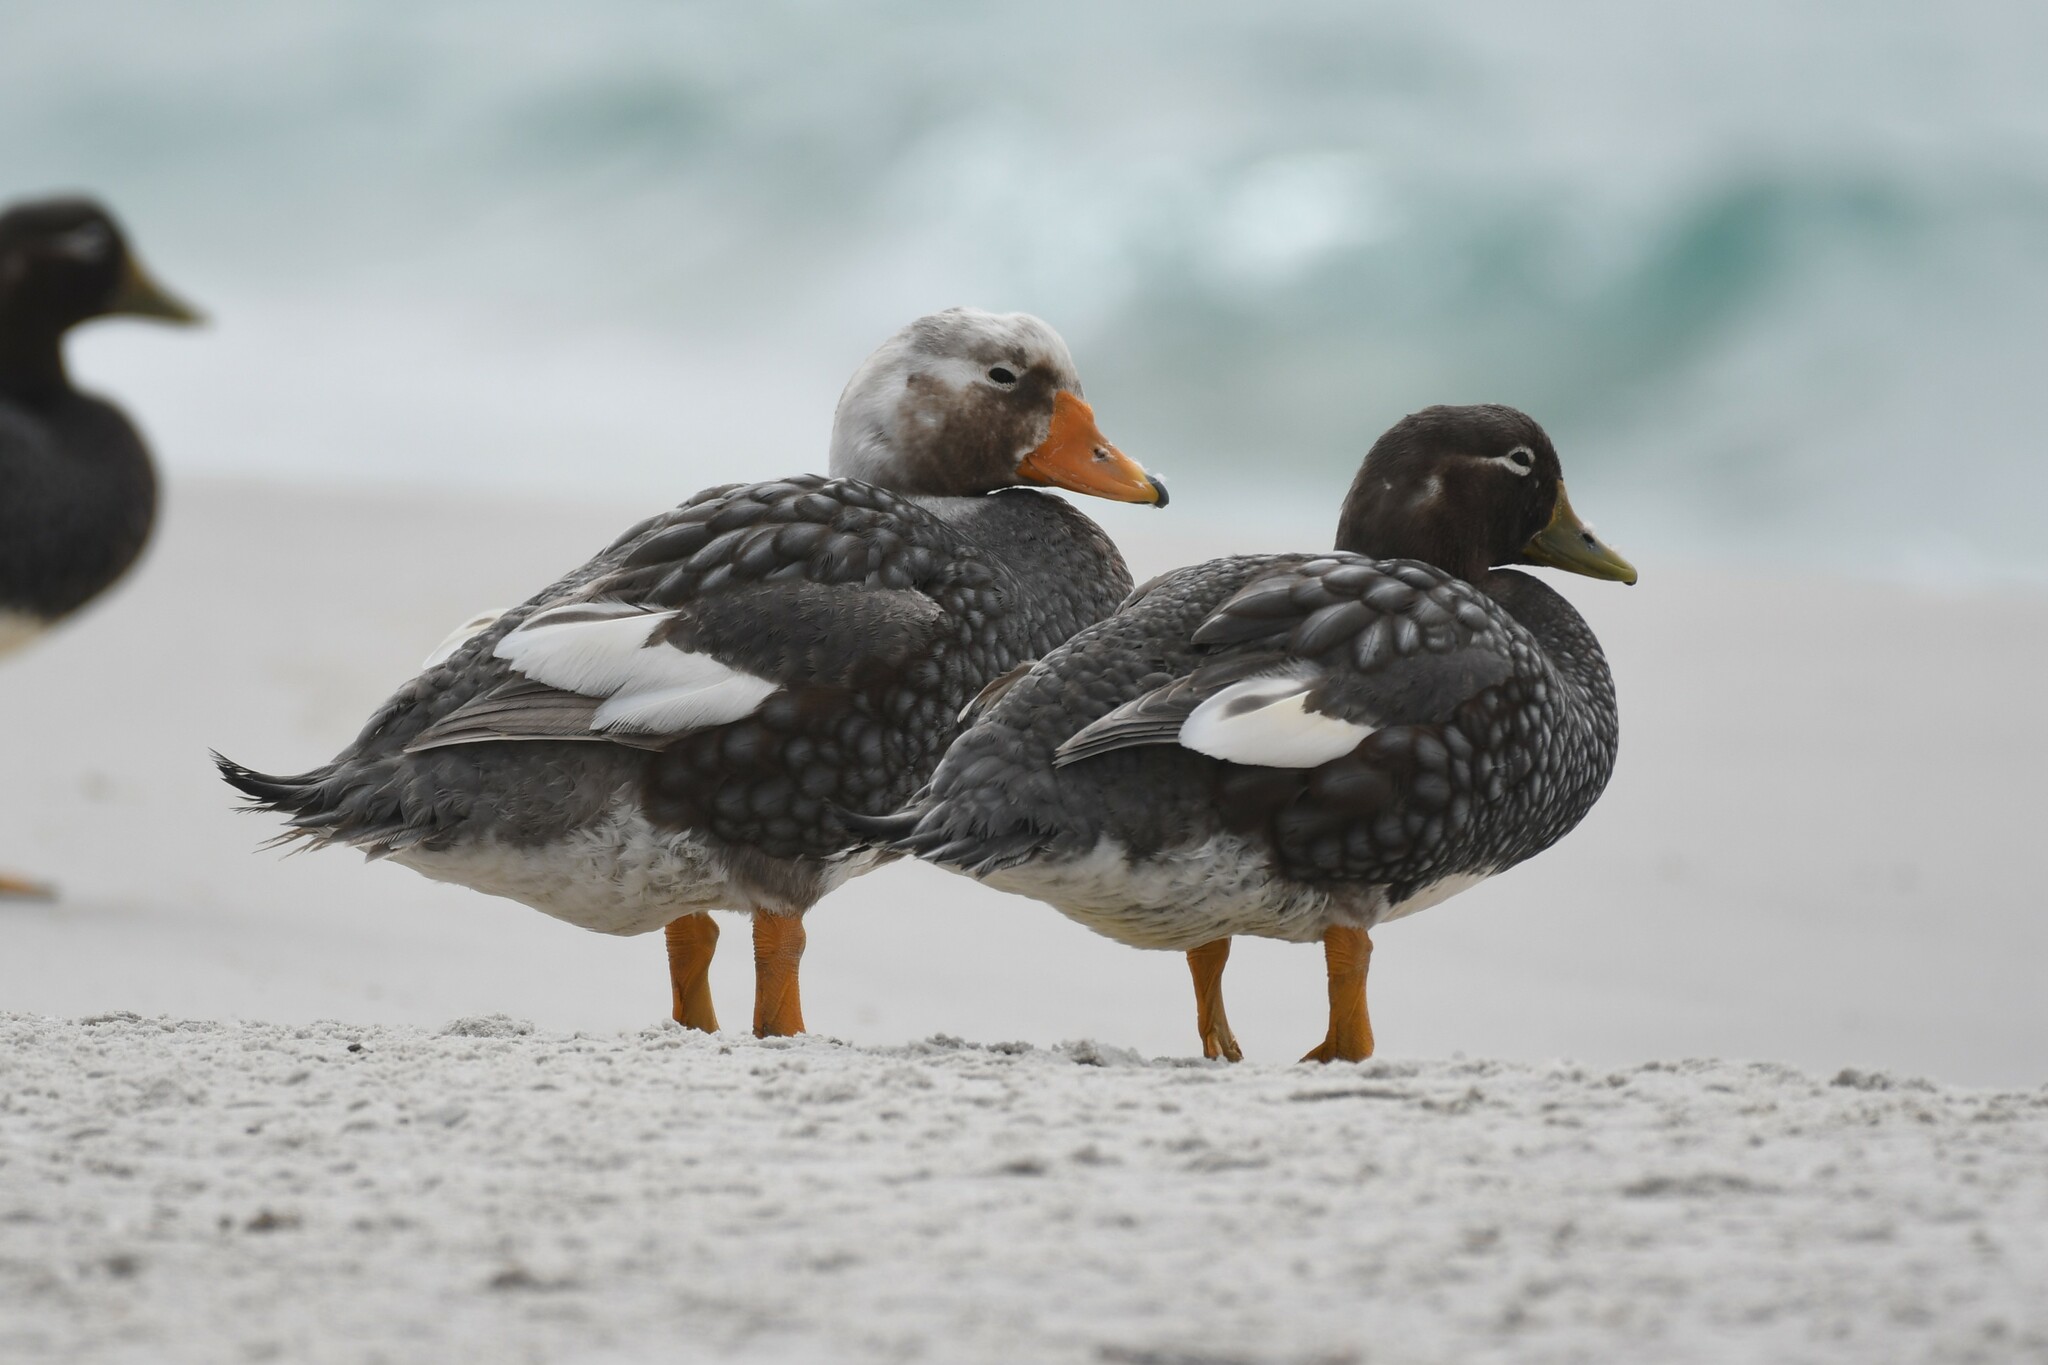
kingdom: Animalia
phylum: Chordata
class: Aves
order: Anseriformes
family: Anatidae
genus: Tachyeres
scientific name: Tachyeres brachypterus
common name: Falkland steamer duck
